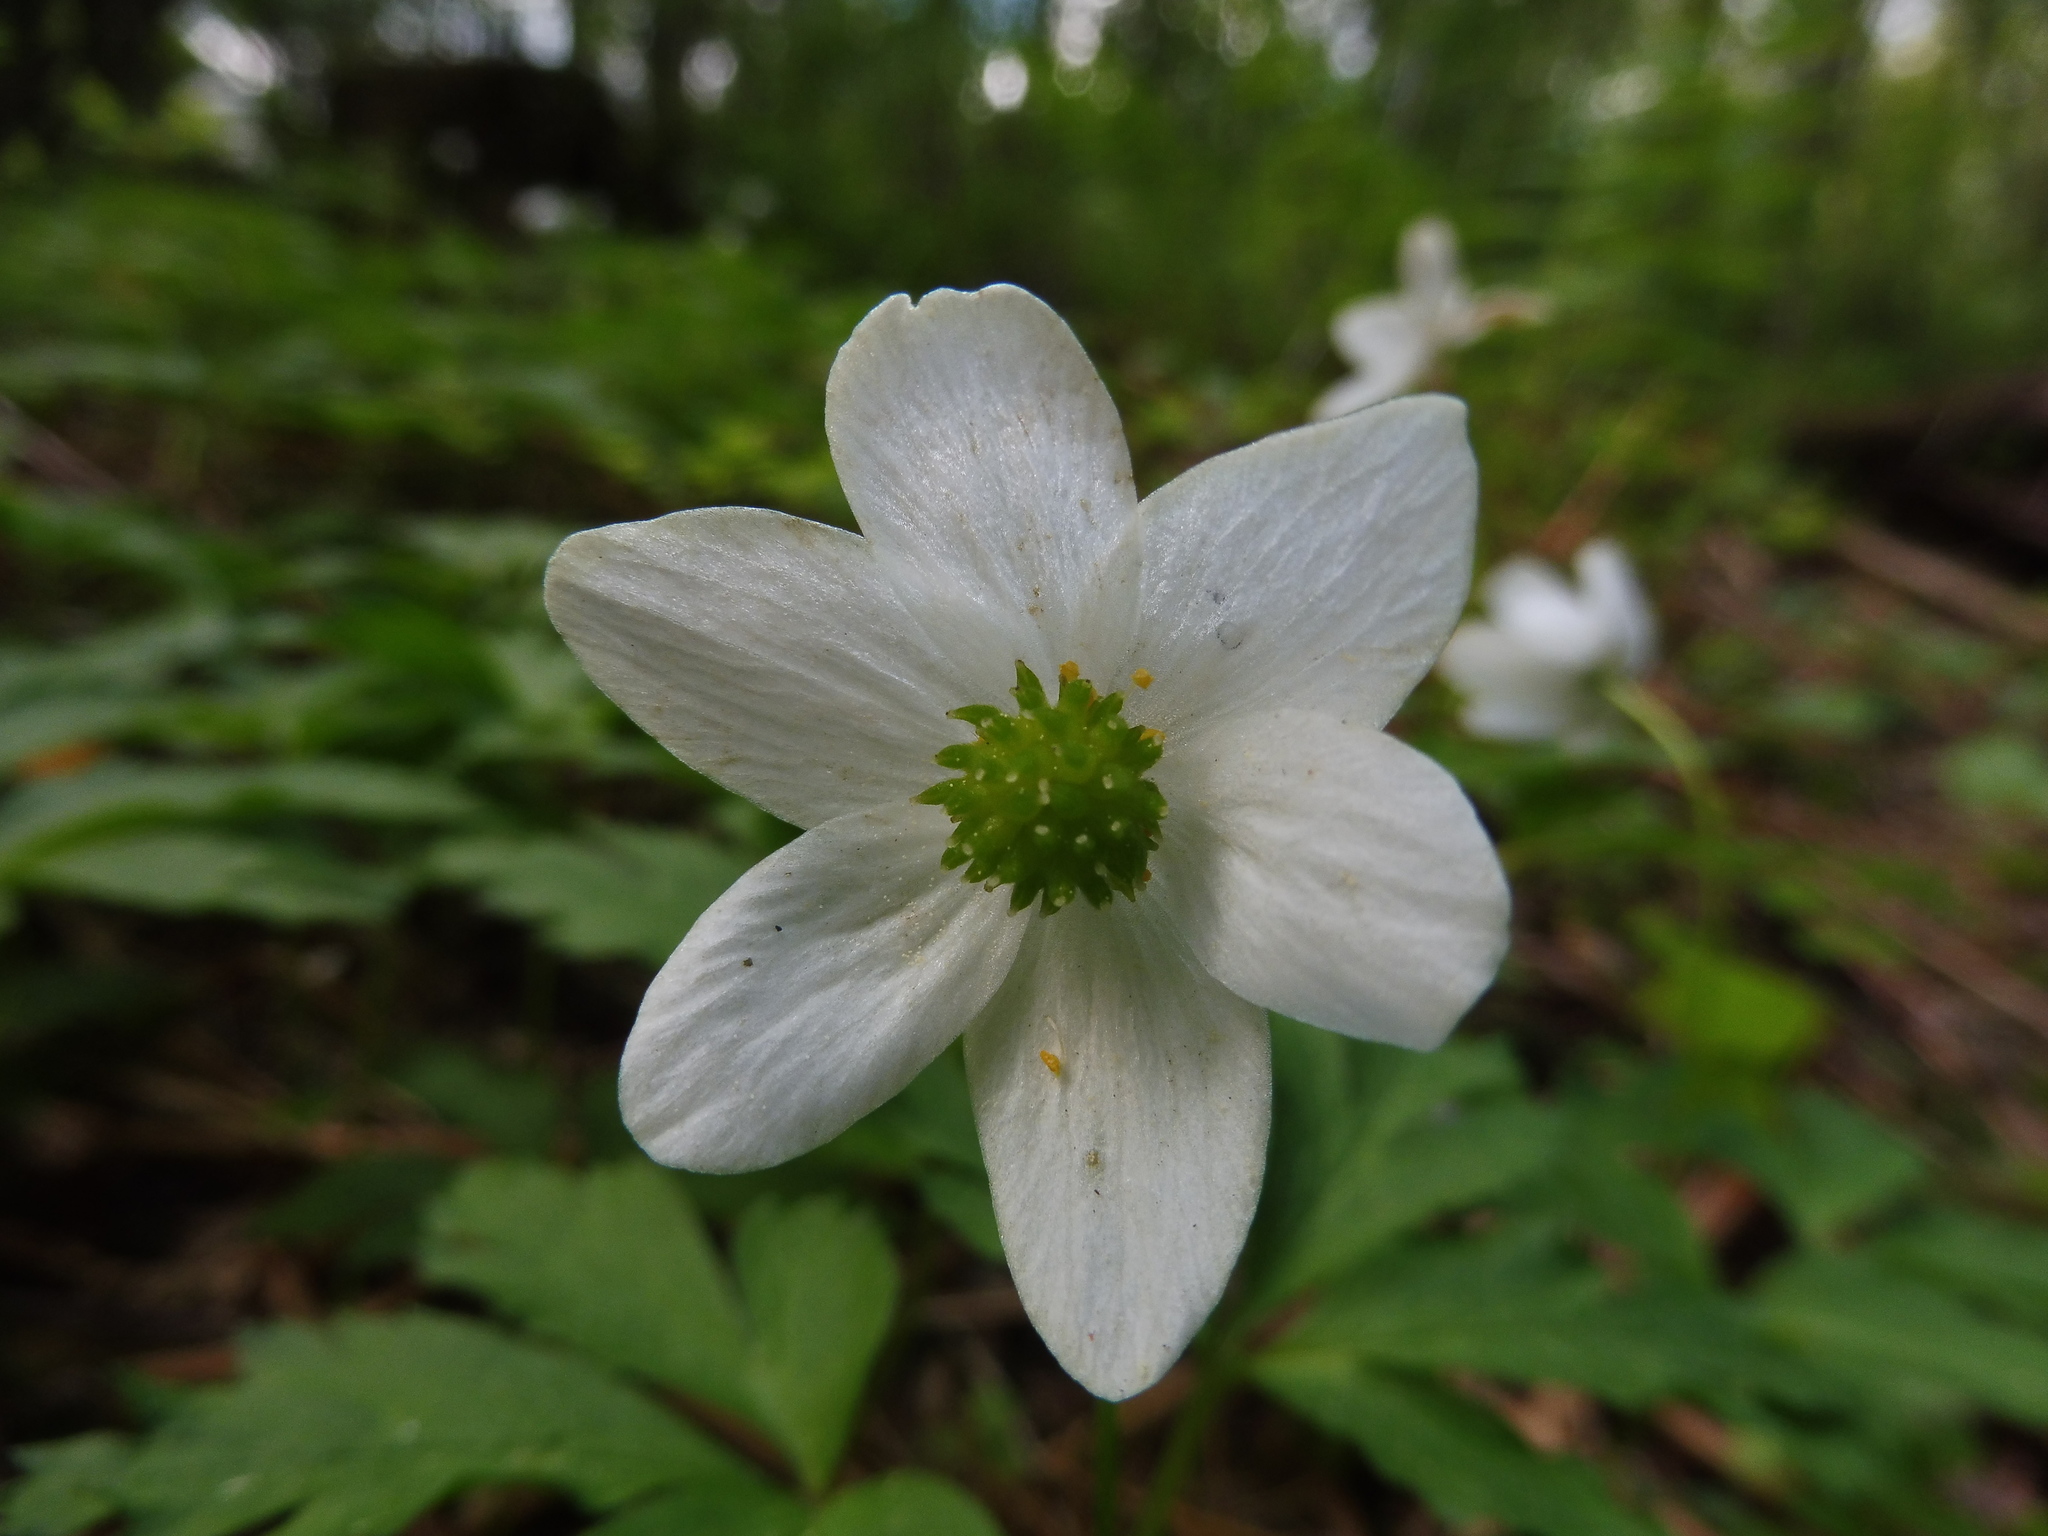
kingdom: Plantae
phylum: Tracheophyta
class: Magnoliopsida
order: Ranunculales
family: Ranunculaceae
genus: Anemone
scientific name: Anemone nemorosa
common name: Wood anemone
